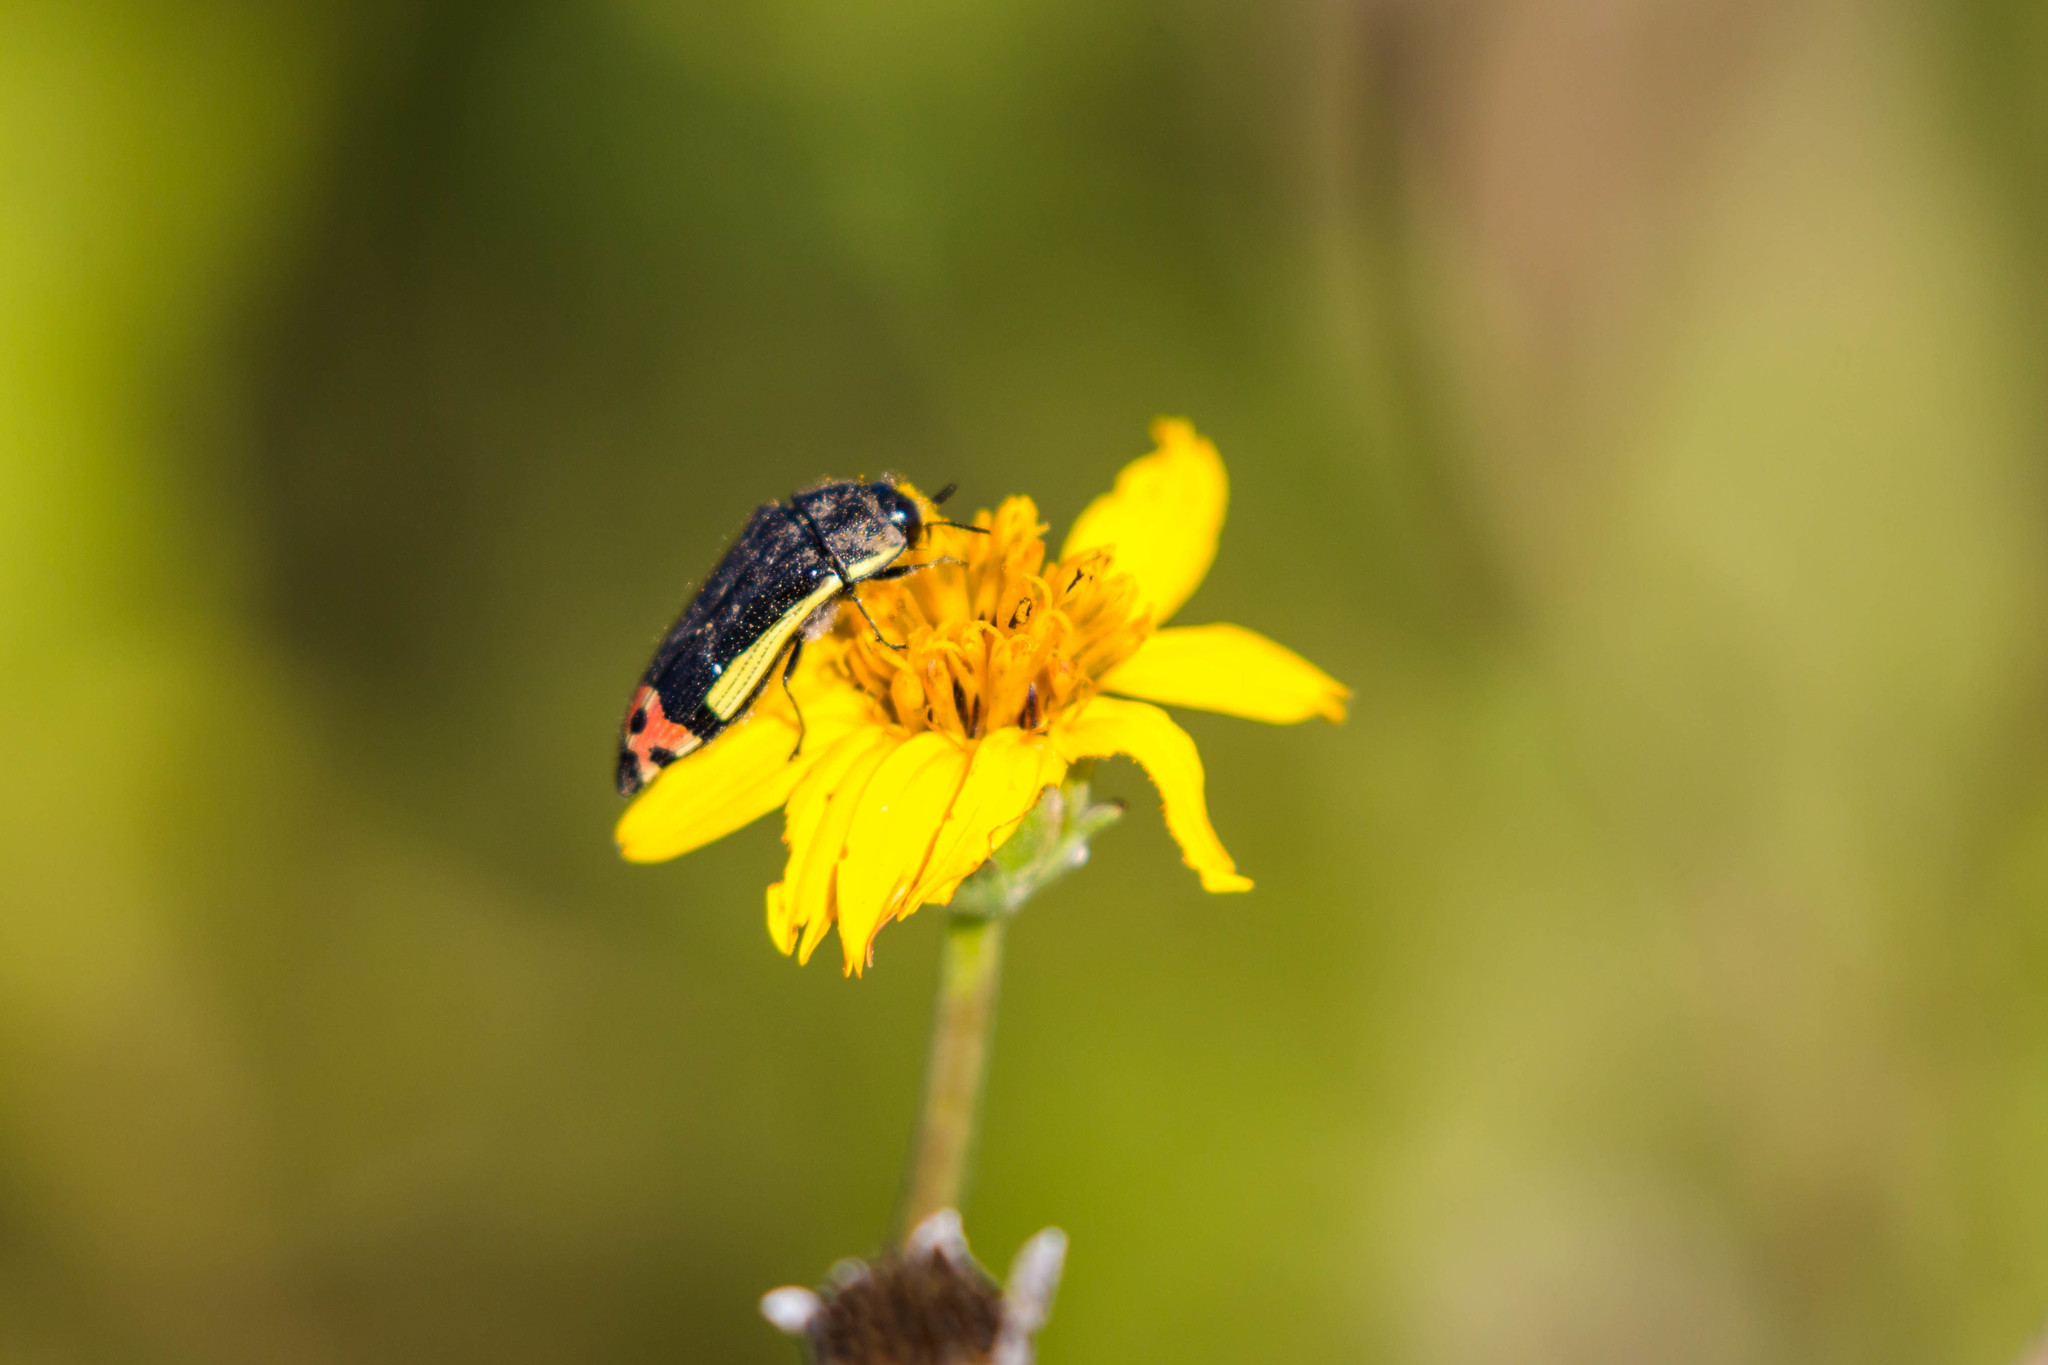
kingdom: Animalia
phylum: Arthropoda
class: Insecta
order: Coleoptera
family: Buprestidae
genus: Acmaeodera
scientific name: Acmaeodera flavomarginata
